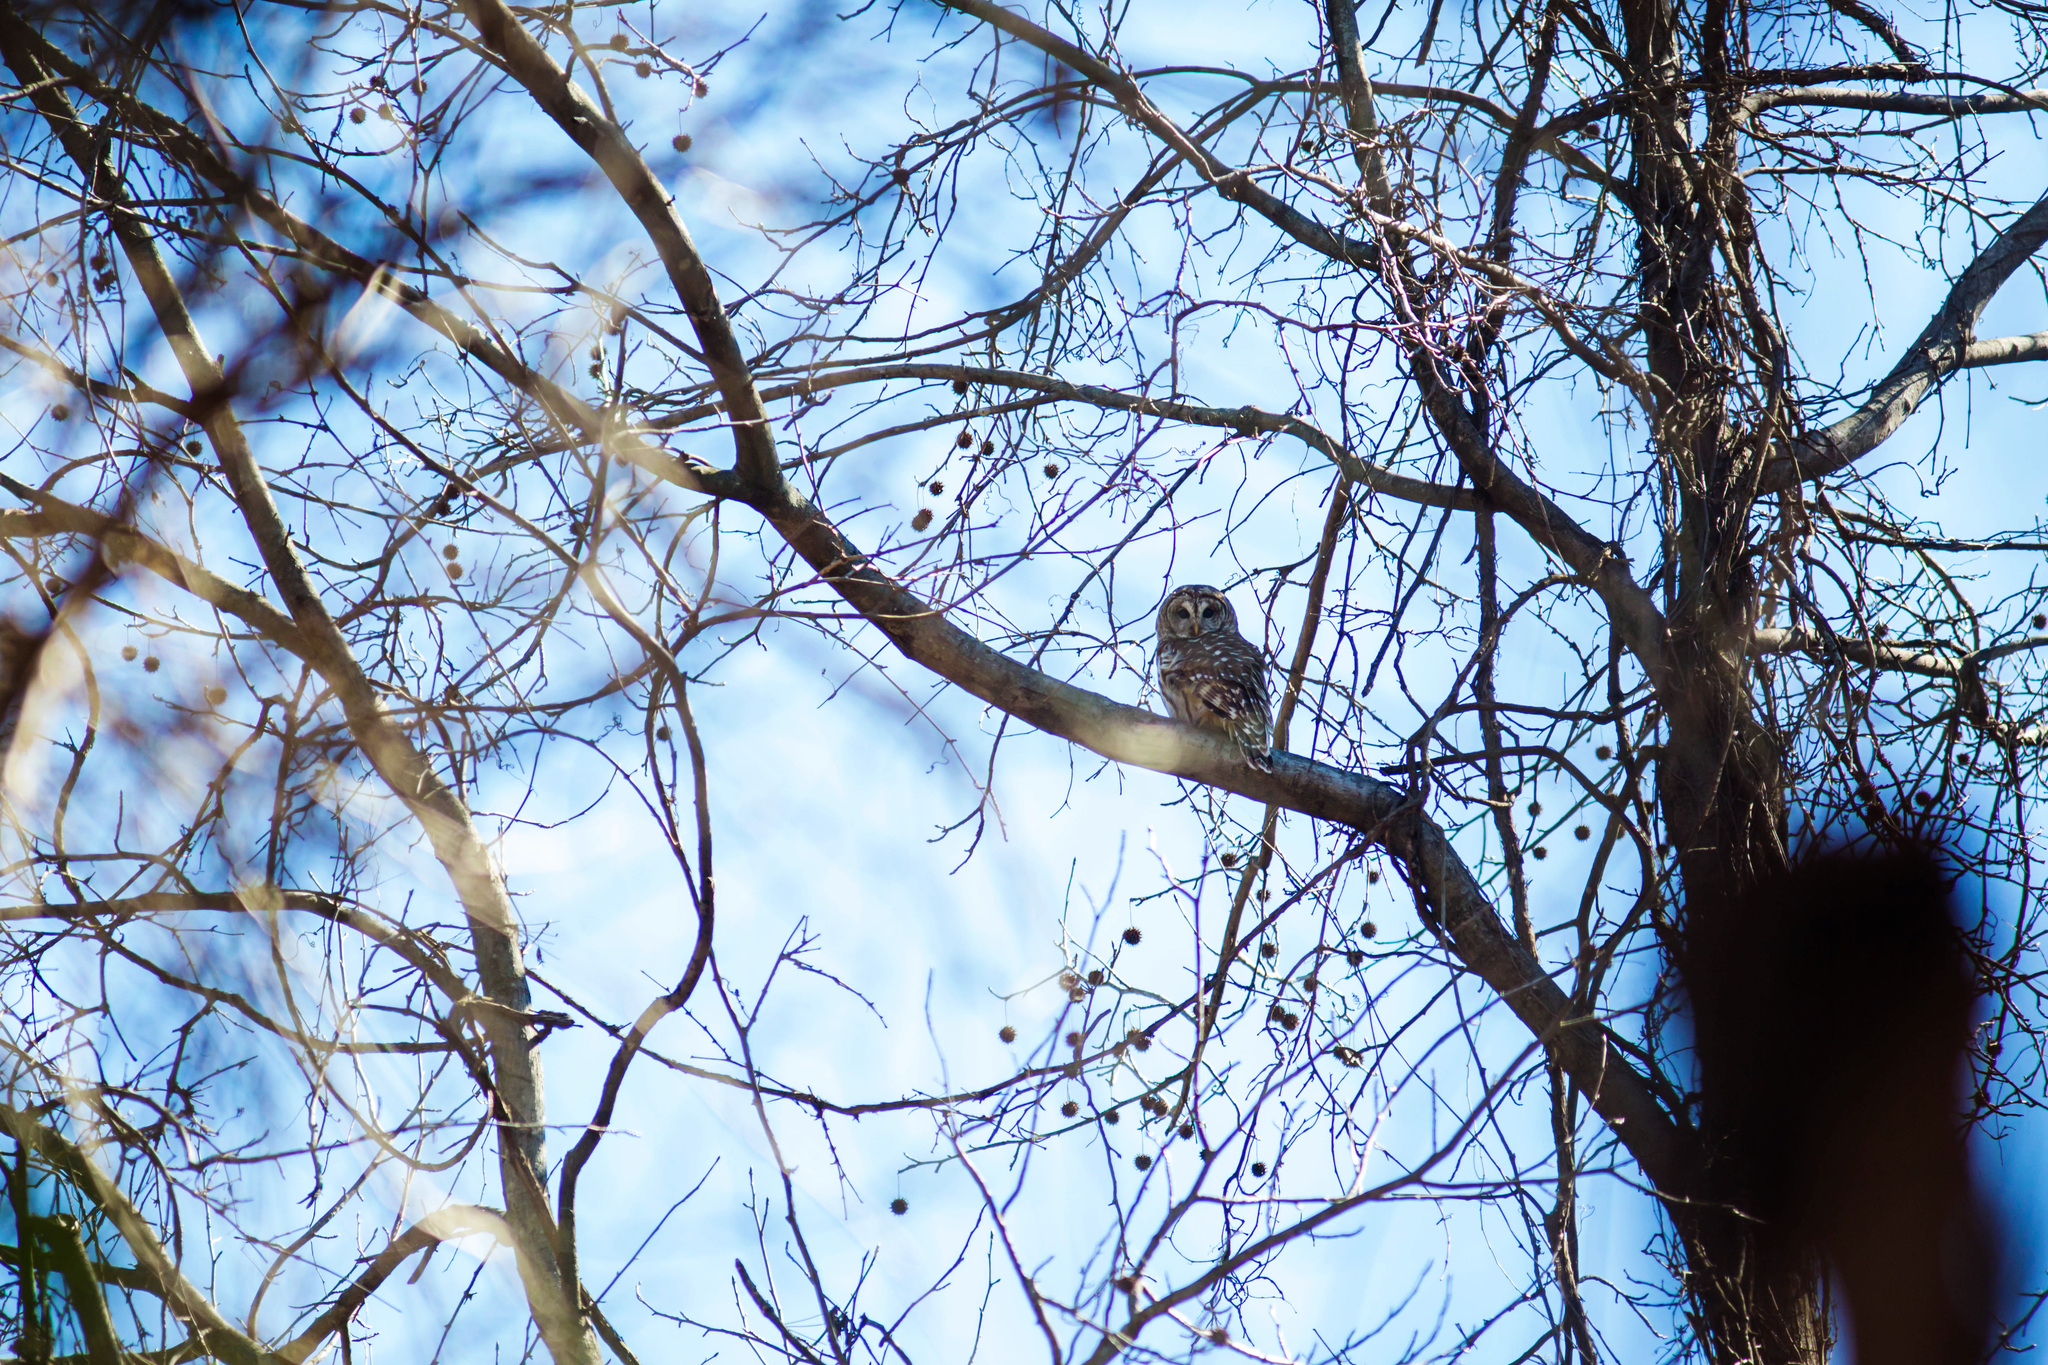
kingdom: Animalia
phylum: Chordata
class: Aves
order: Strigiformes
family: Strigidae
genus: Strix
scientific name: Strix varia
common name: Barred owl
